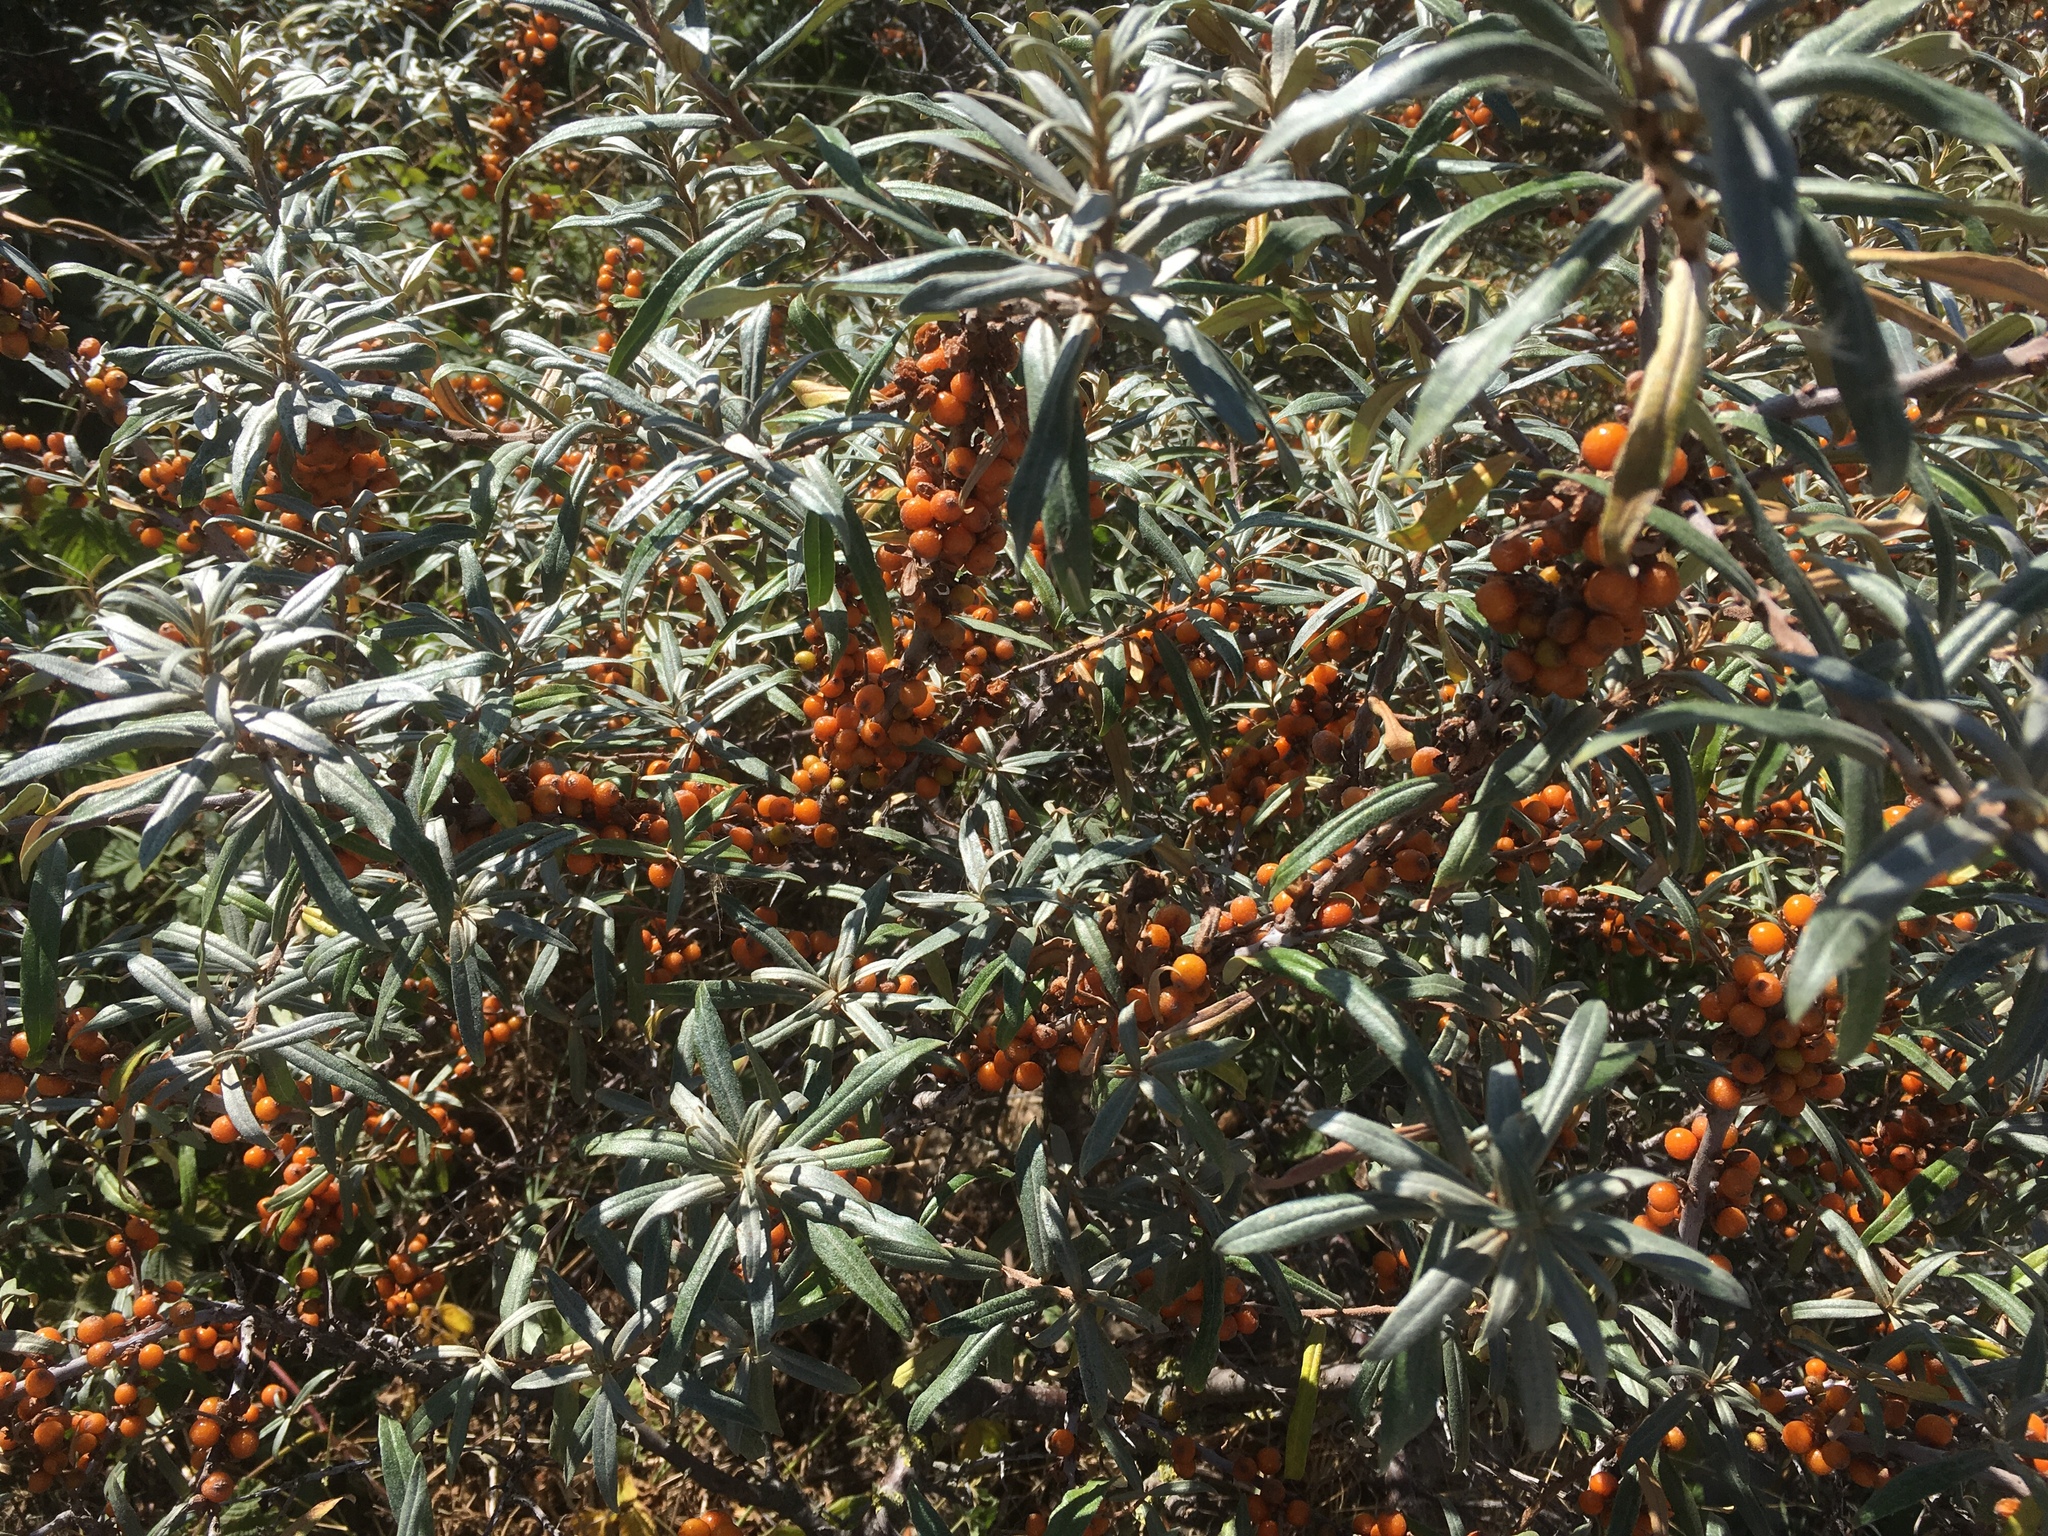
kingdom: Plantae
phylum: Tracheophyta
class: Magnoliopsida
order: Rosales
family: Elaeagnaceae
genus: Hippophae
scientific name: Hippophae rhamnoides
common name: Sea-buckthorn
